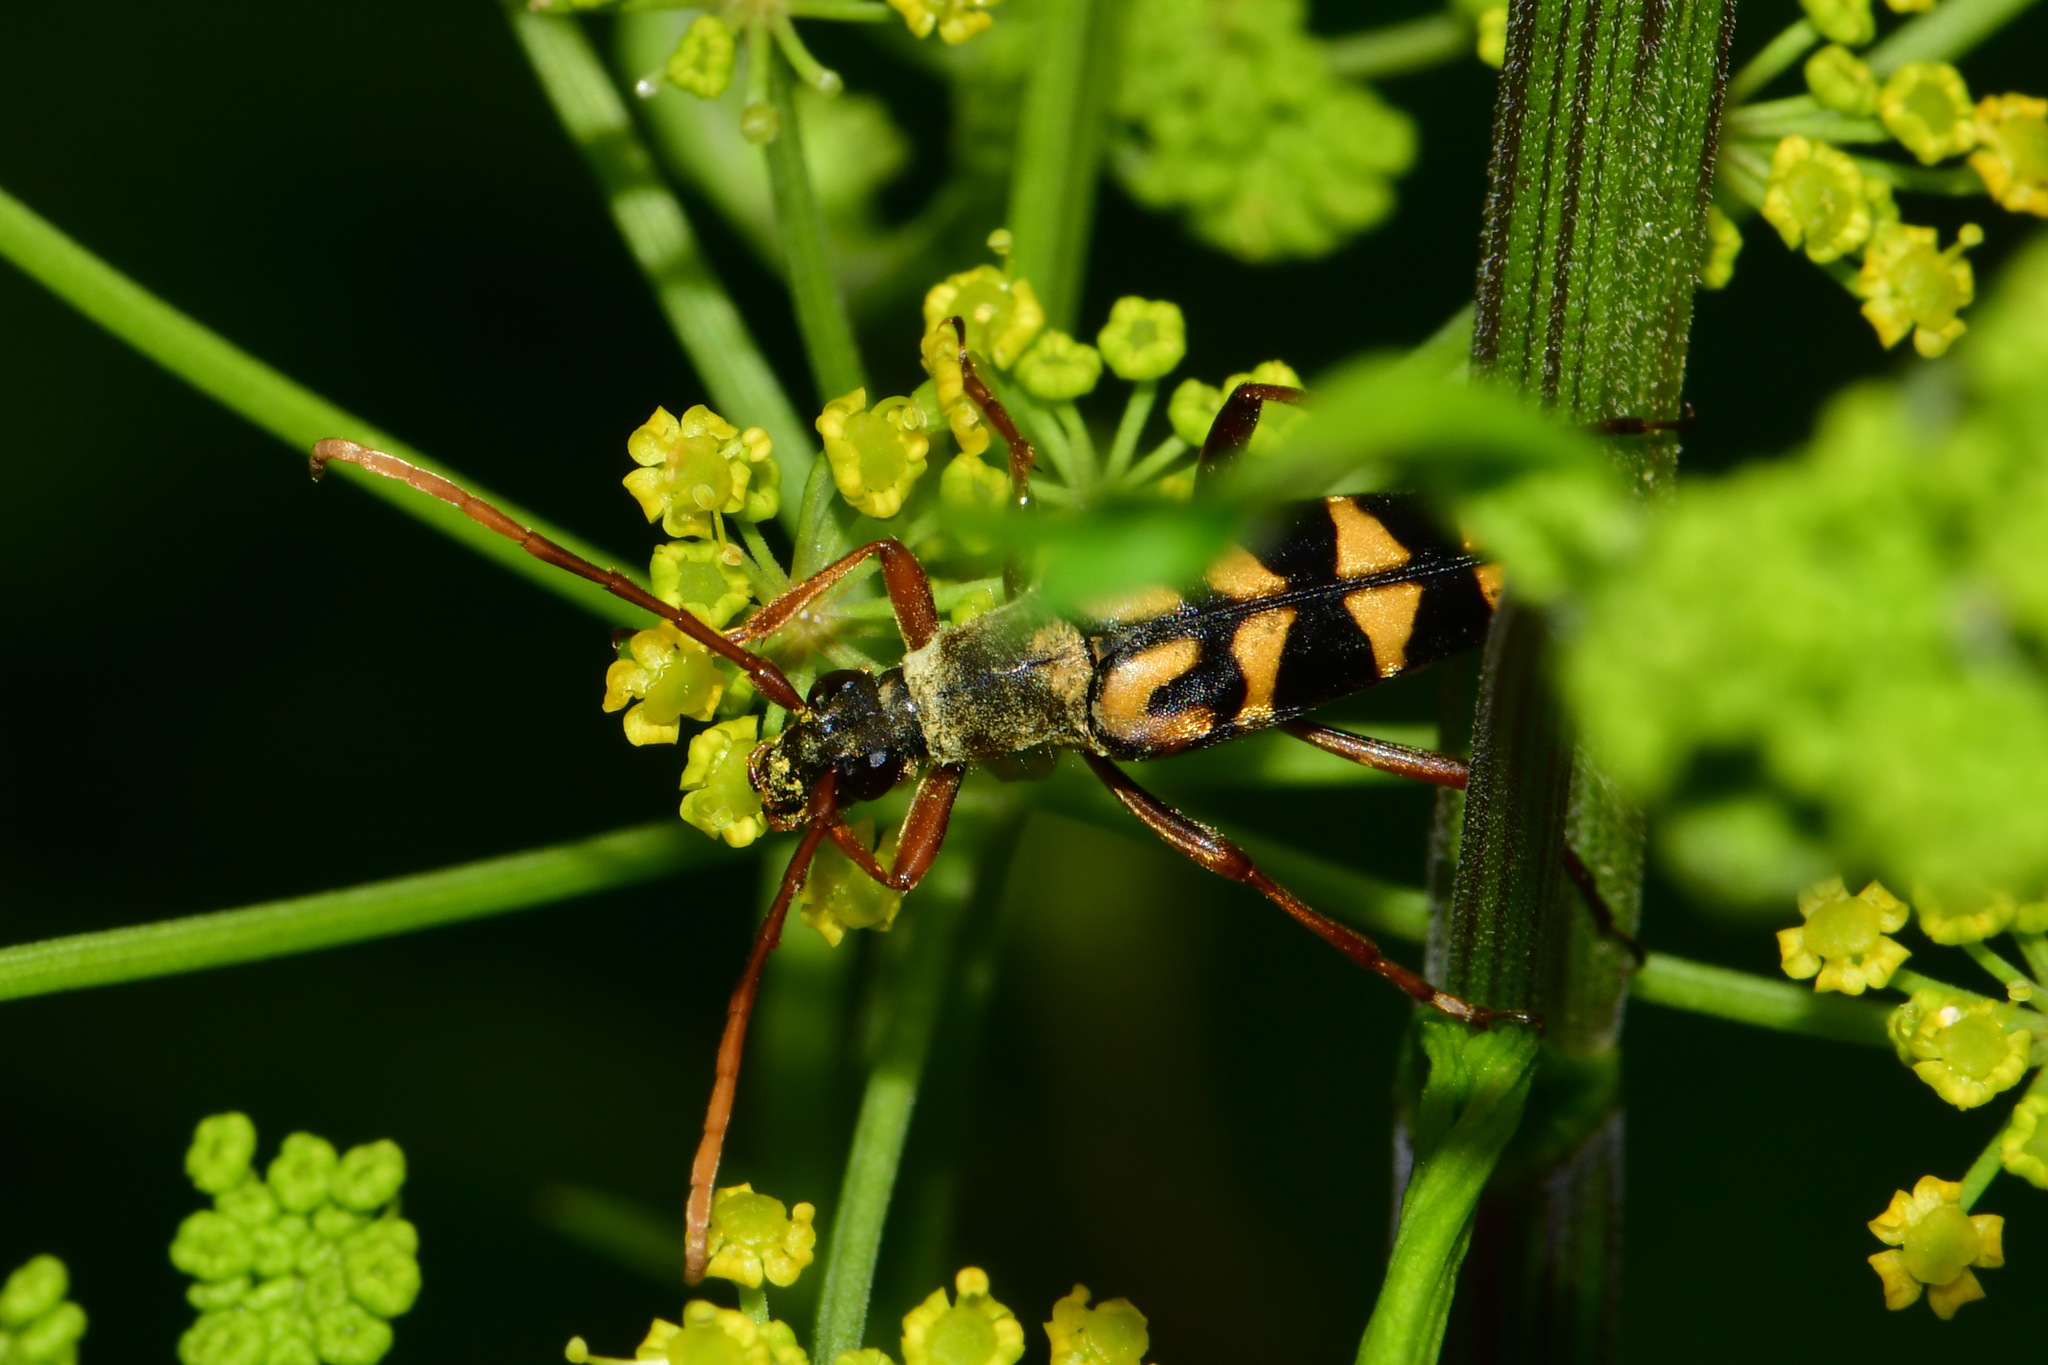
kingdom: Animalia
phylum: Arthropoda
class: Insecta
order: Coleoptera
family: Cerambycidae
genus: Leptura
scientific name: Leptura annularis
